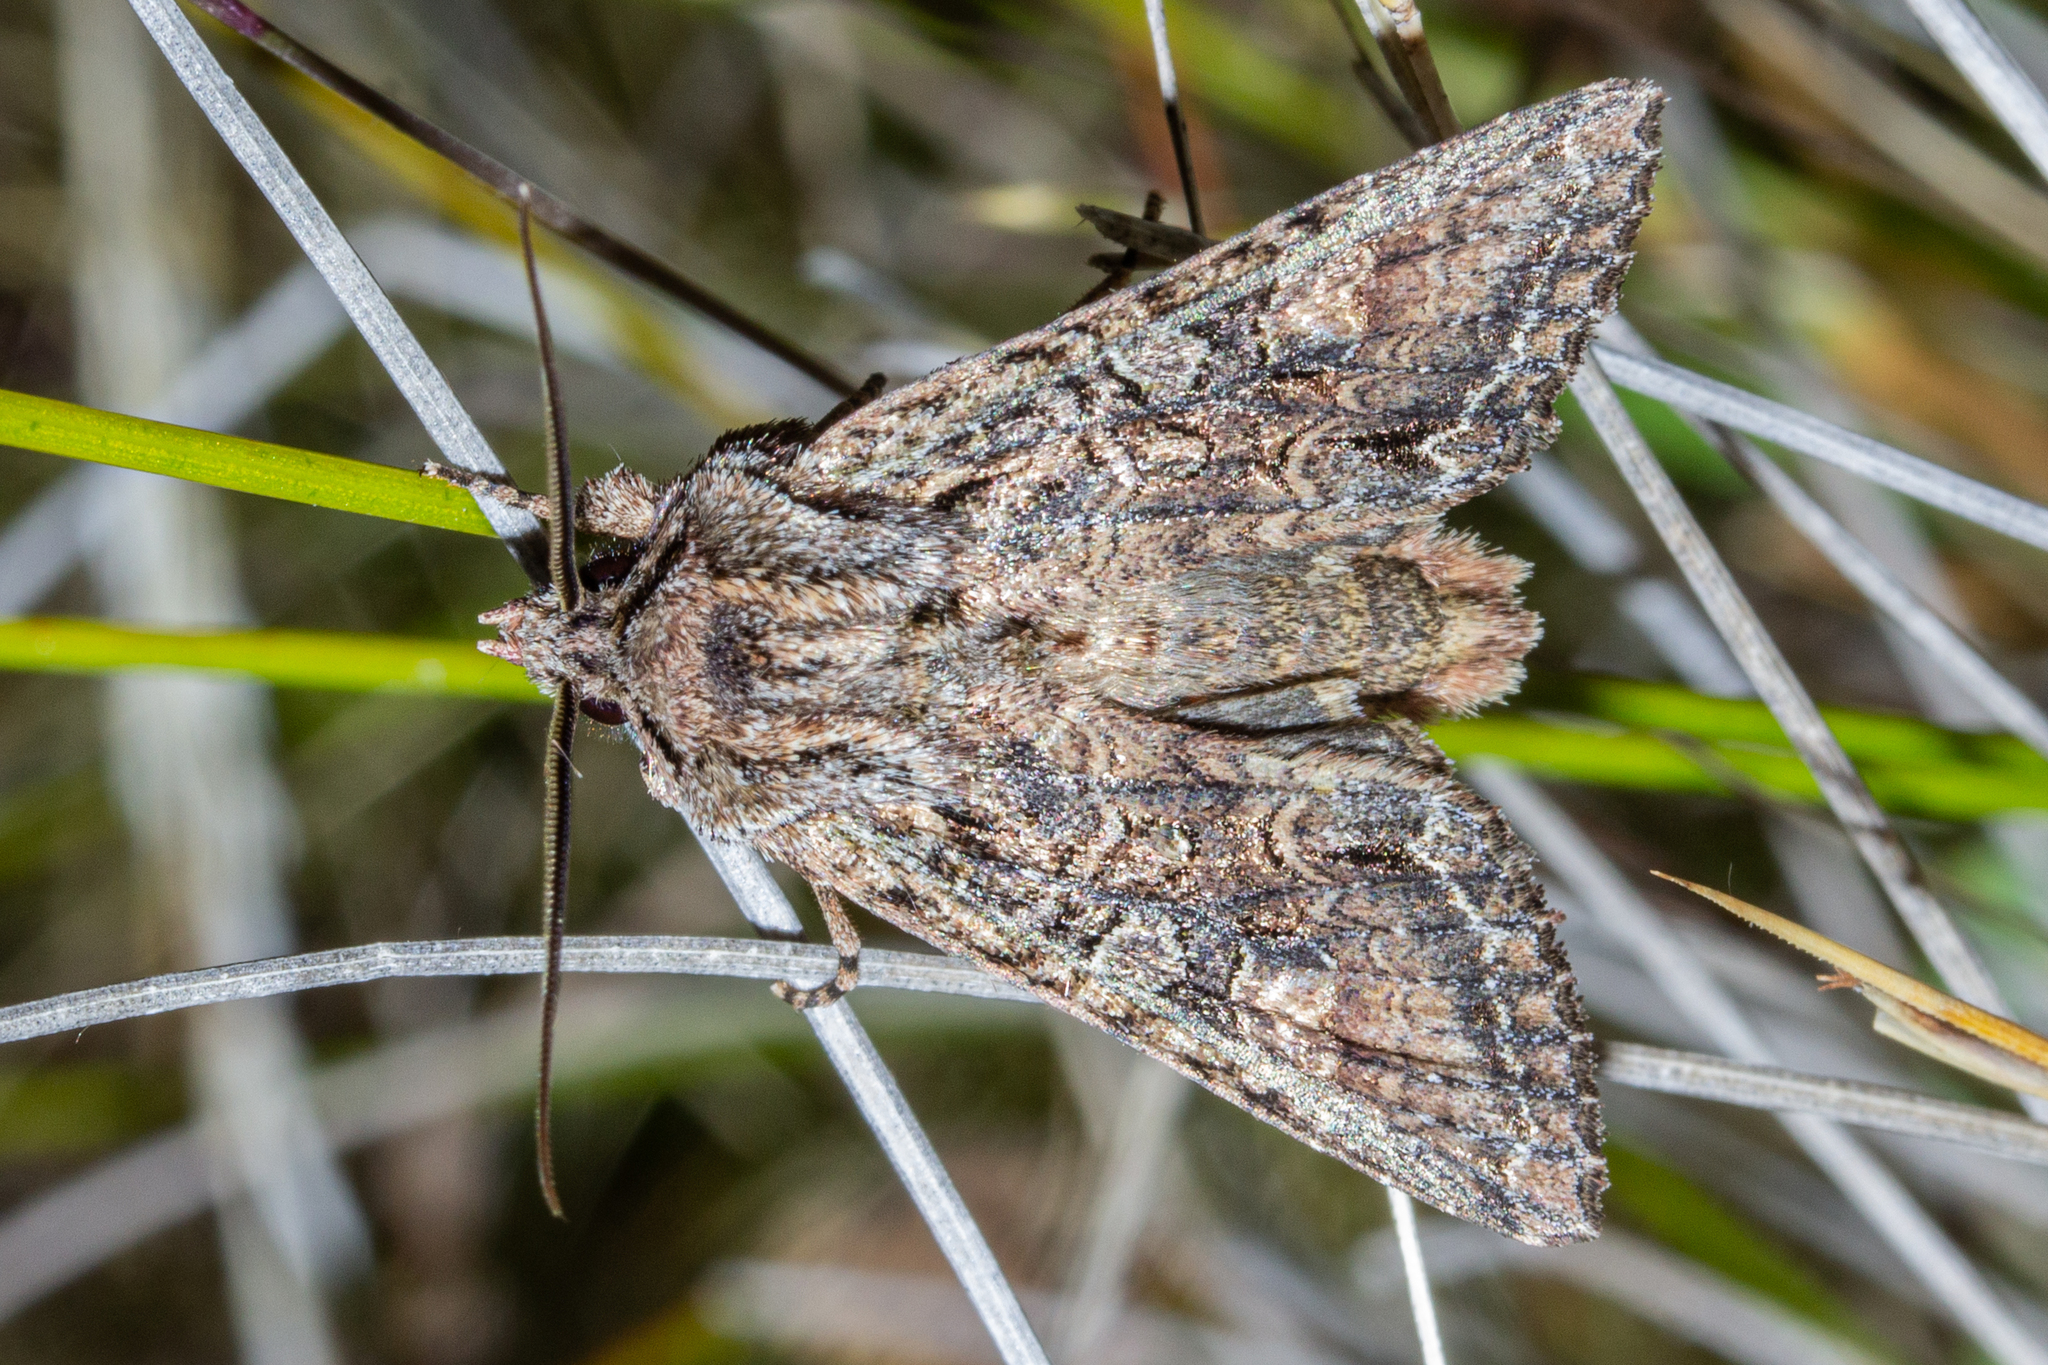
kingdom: Animalia
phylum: Arthropoda
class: Insecta
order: Lepidoptera
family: Noctuidae
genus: Ichneutica
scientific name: Ichneutica mutans
